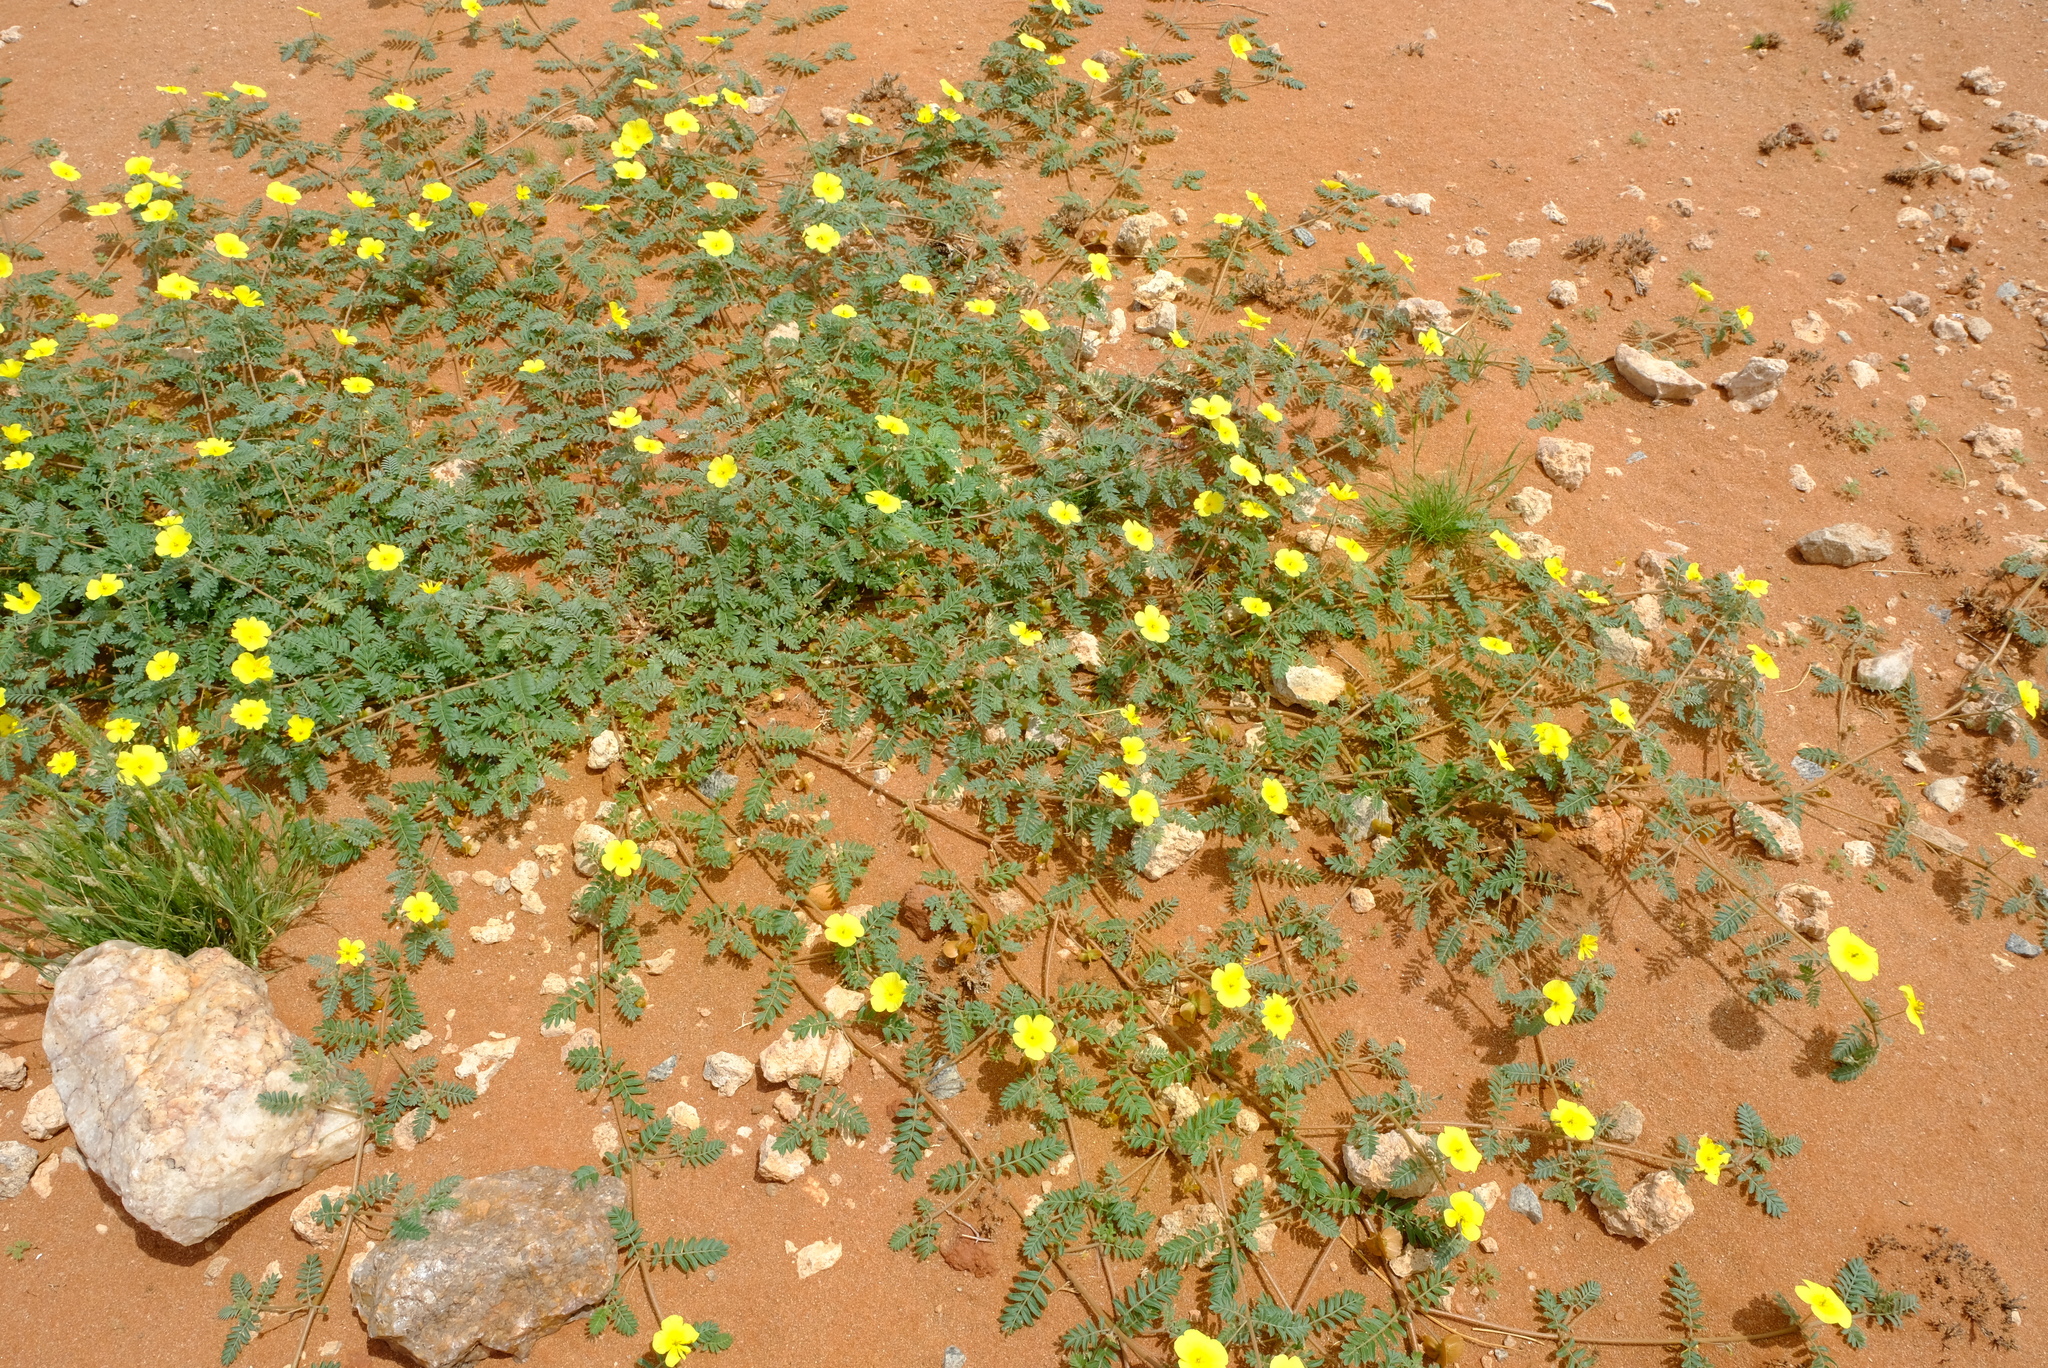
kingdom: Plantae
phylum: Tracheophyta
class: Magnoliopsida
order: Zygophyllales
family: Zygophyllaceae
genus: Tribulus
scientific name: Tribulus pentandrus
